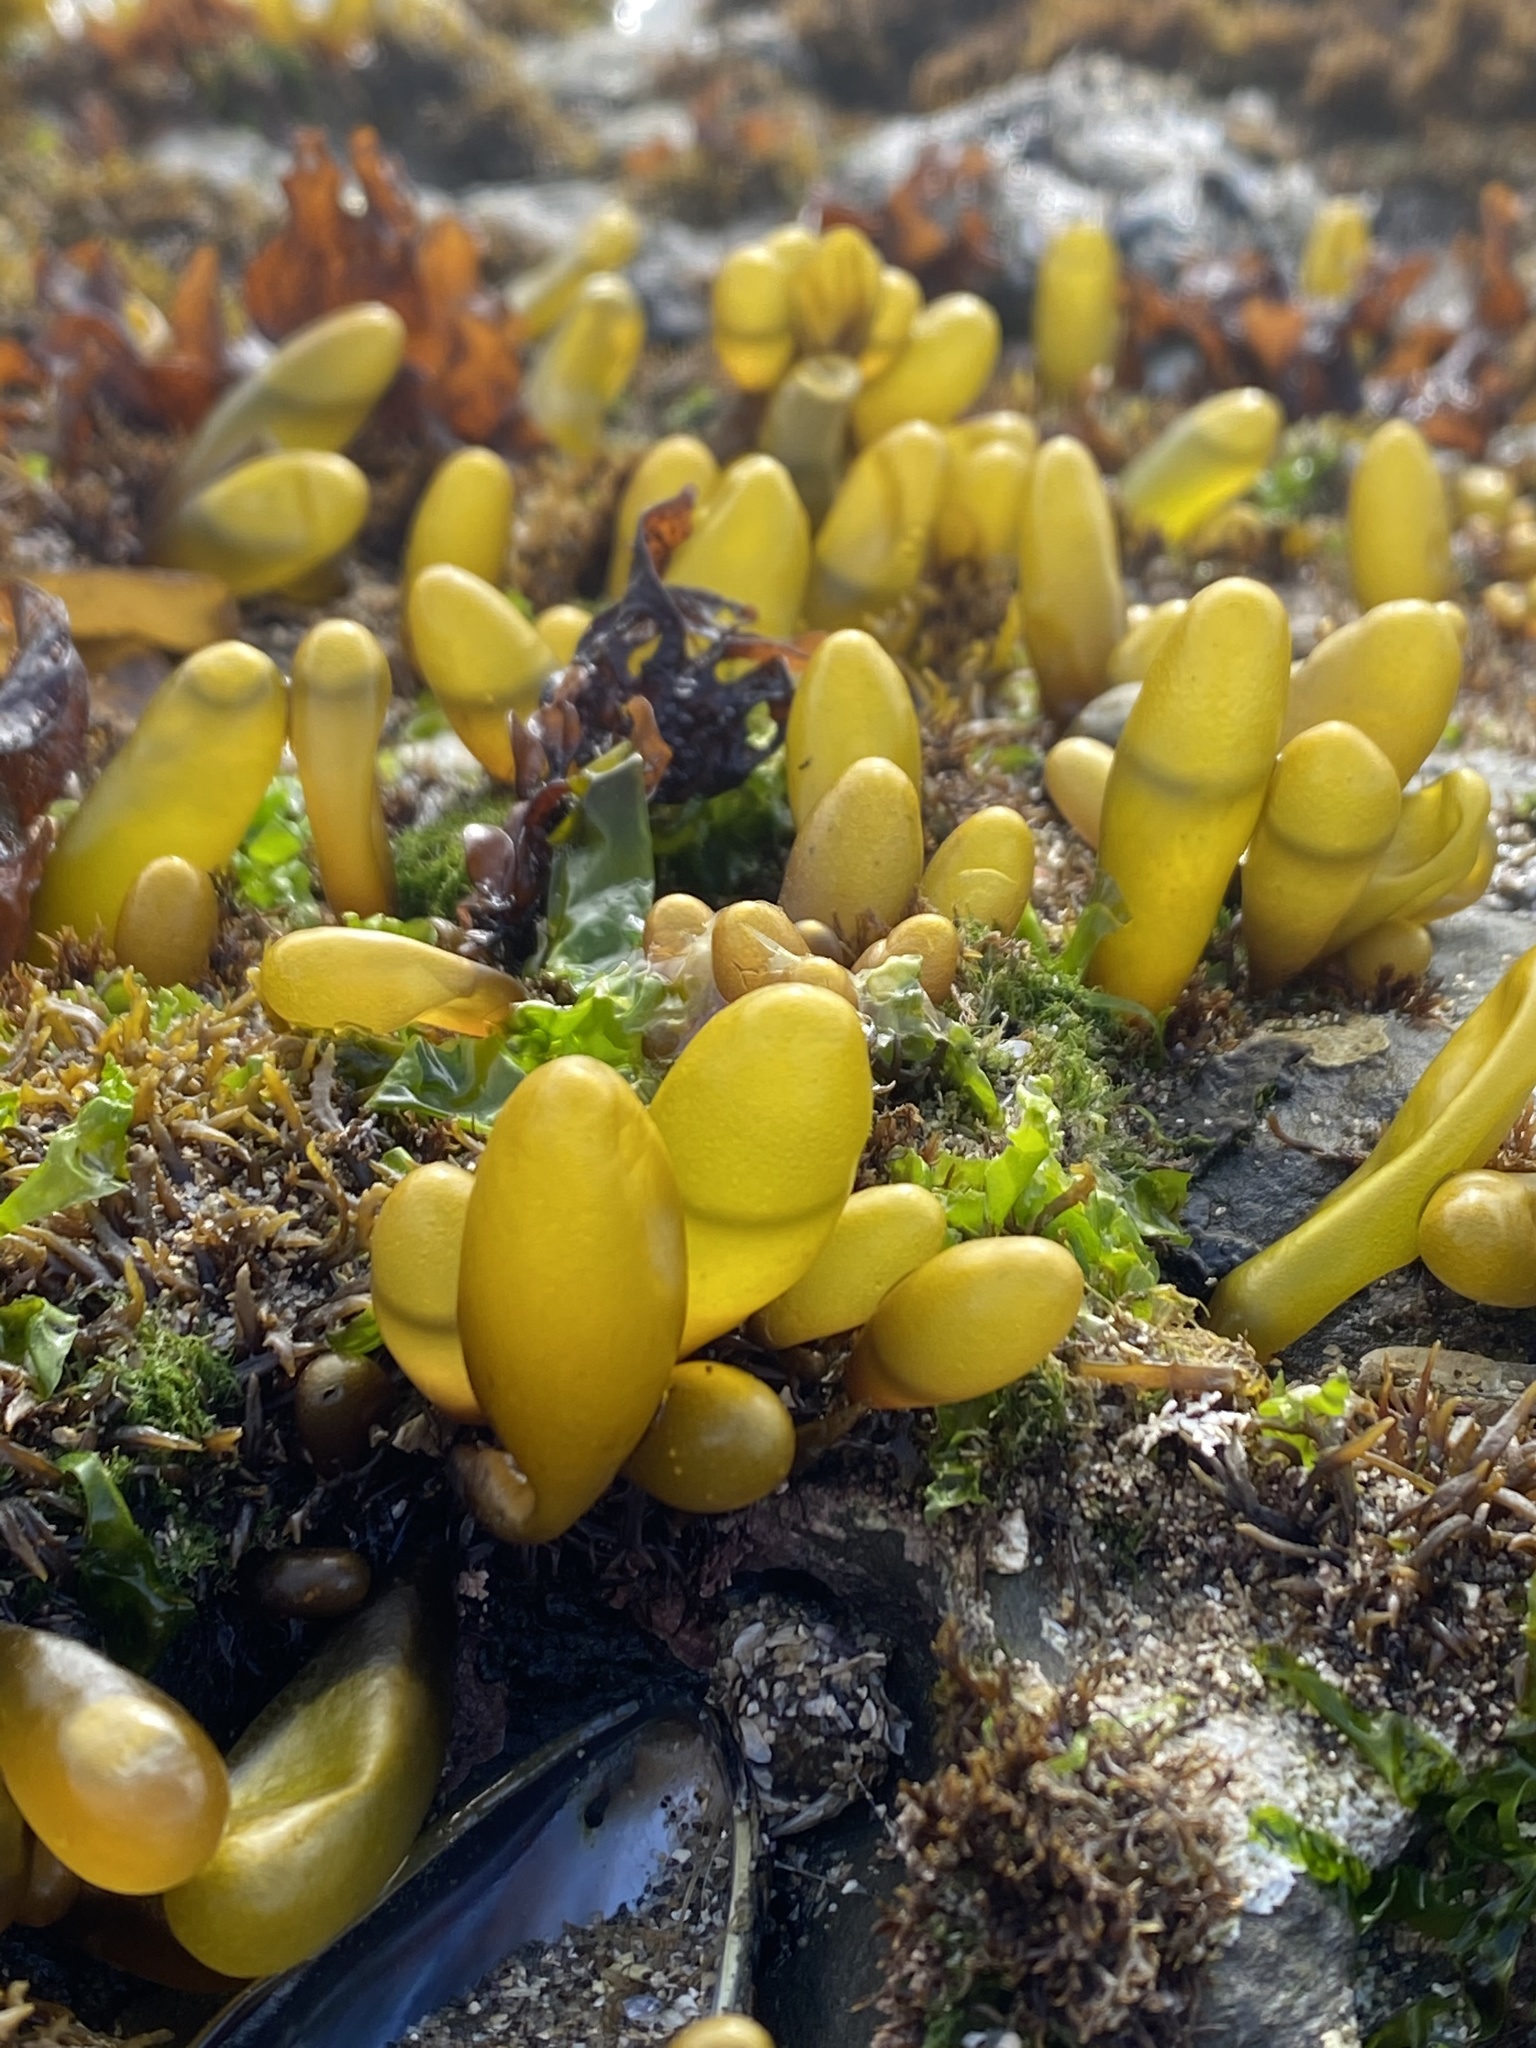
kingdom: Plantae
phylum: Rhodophyta
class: Florideophyceae
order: Palmariales
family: Palmariaceae
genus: Halosaccion
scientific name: Halosaccion glandiforme
